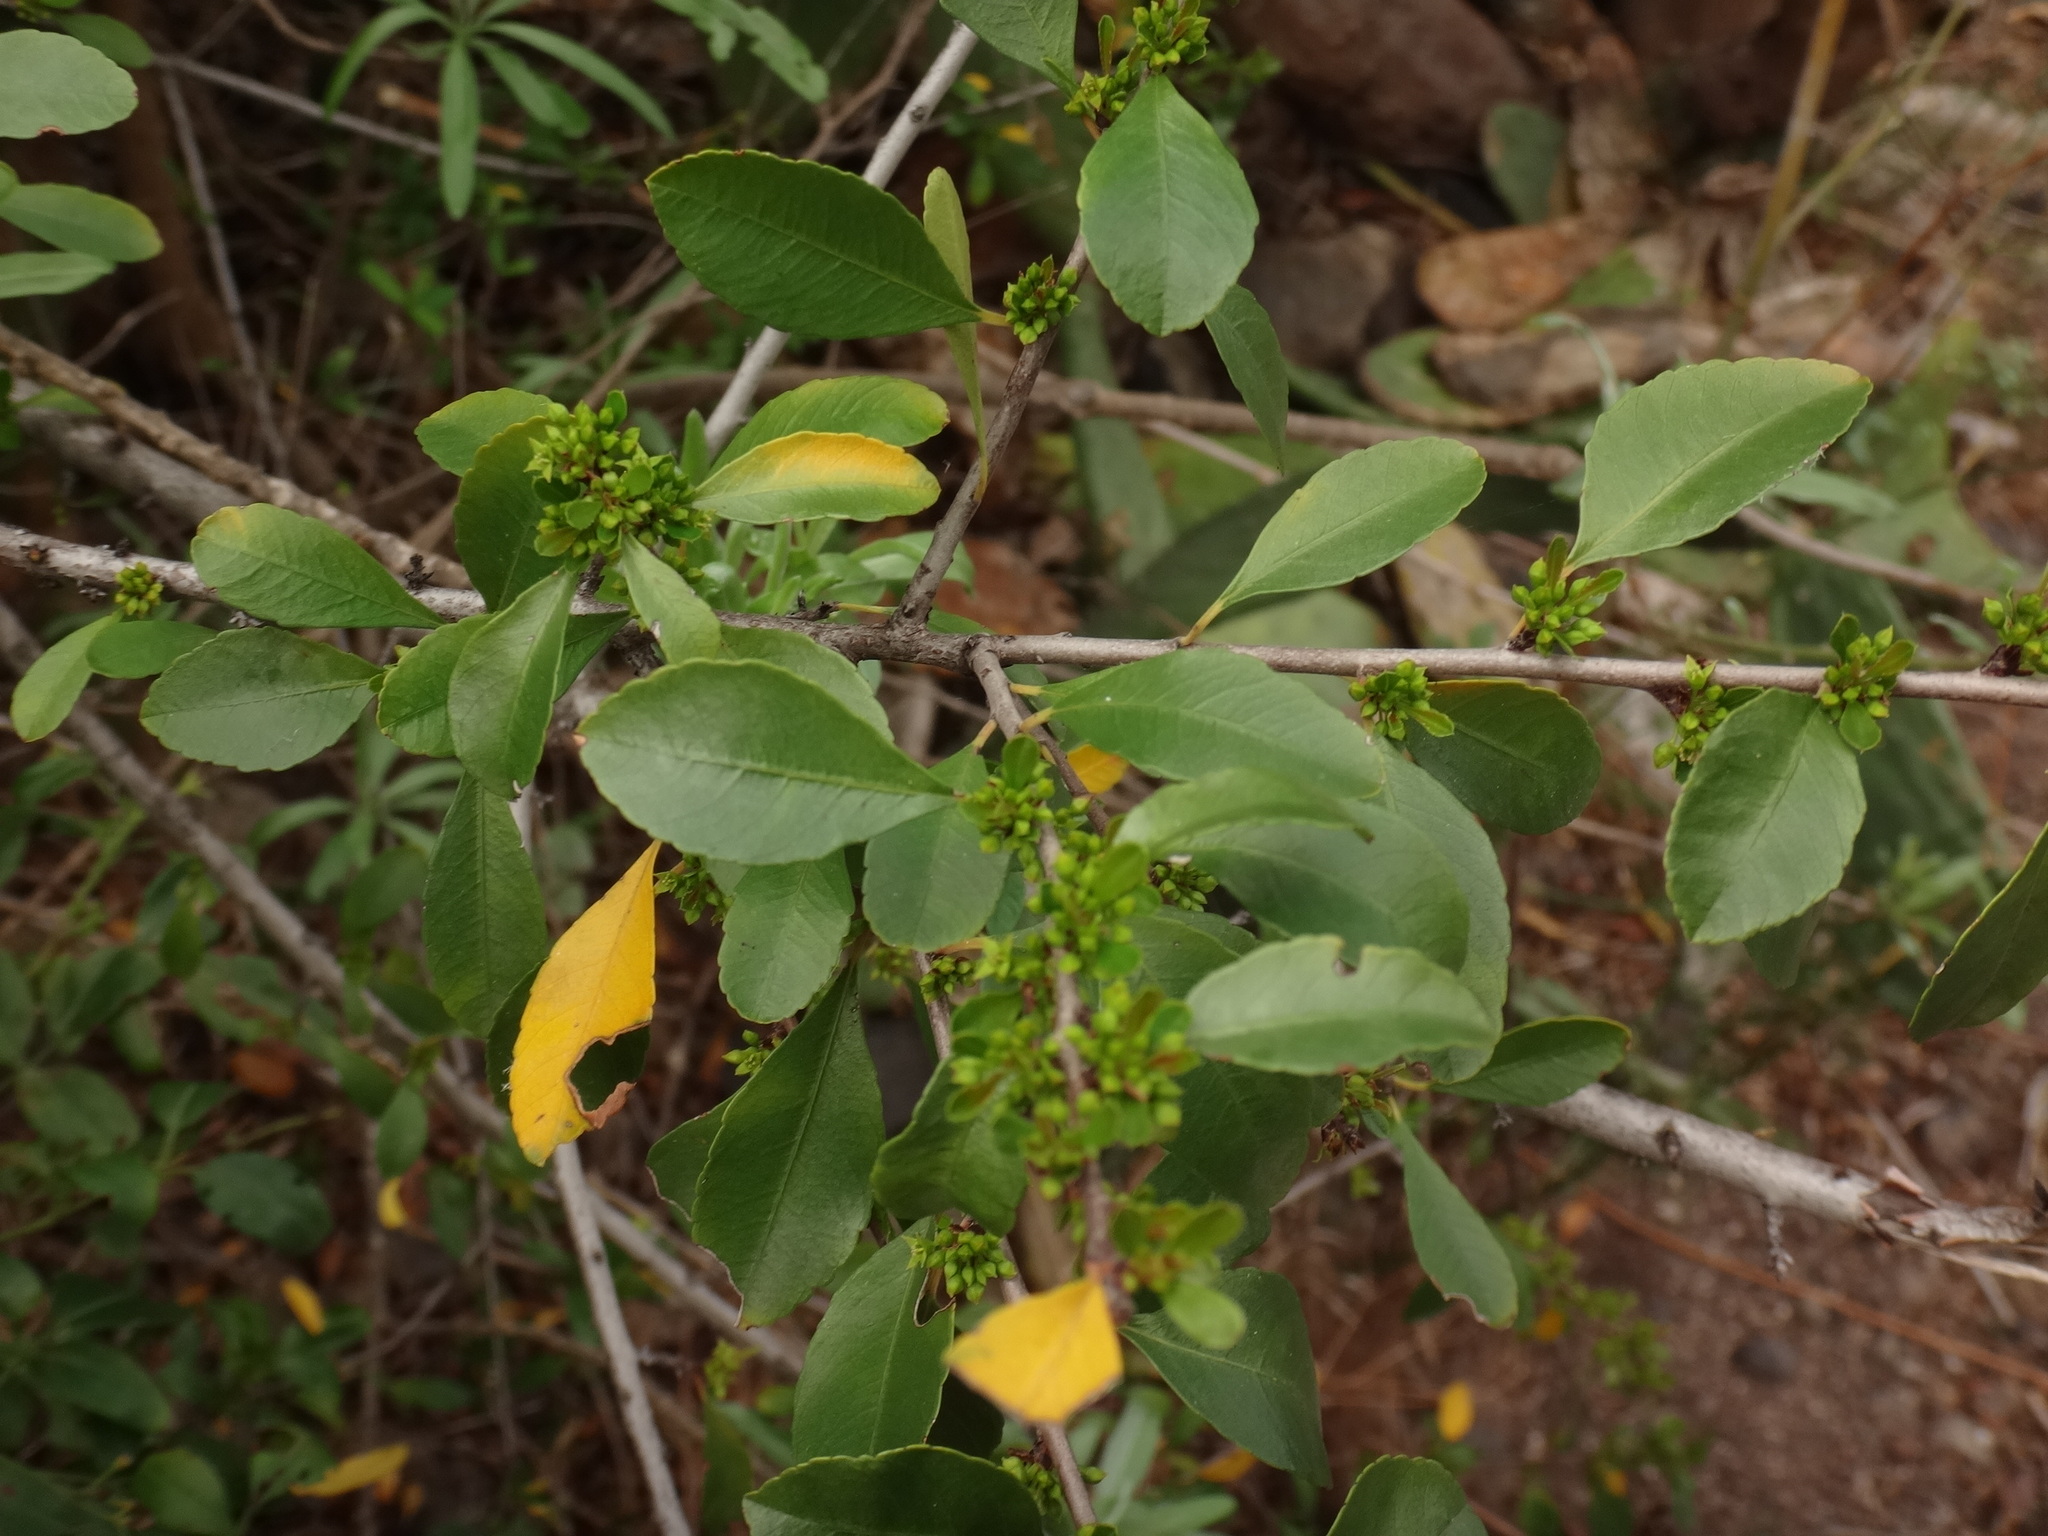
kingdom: Plantae
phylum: Tracheophyta
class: Magnoliopsida
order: Rosales
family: Rhamnaceae
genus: Rhamnus
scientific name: Rhamnus crenulata
